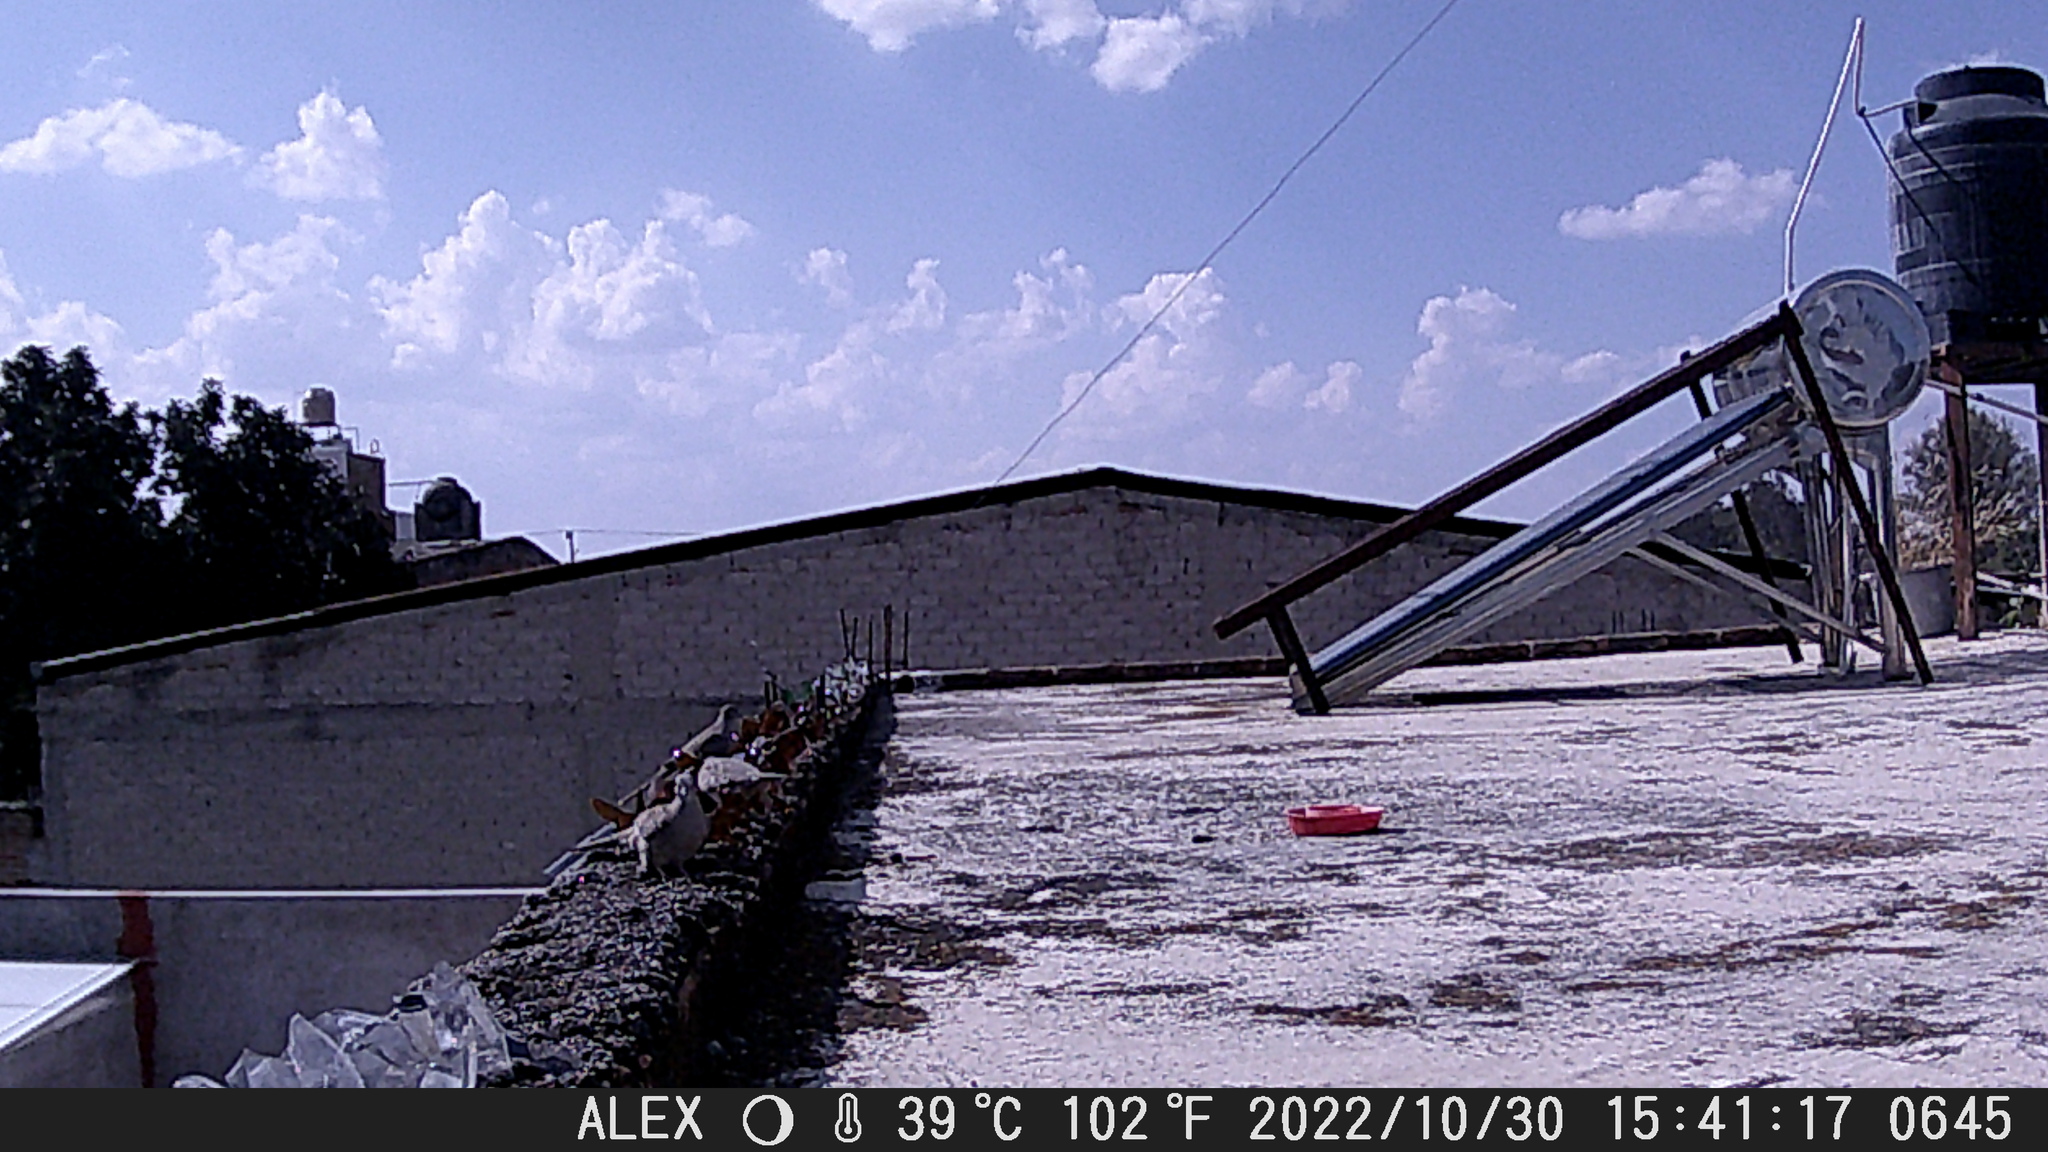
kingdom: Animalia
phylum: Chordata
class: Aves
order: Columbiformes
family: Columbidae
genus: Columbina
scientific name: Columbina inca
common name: Inca dove
